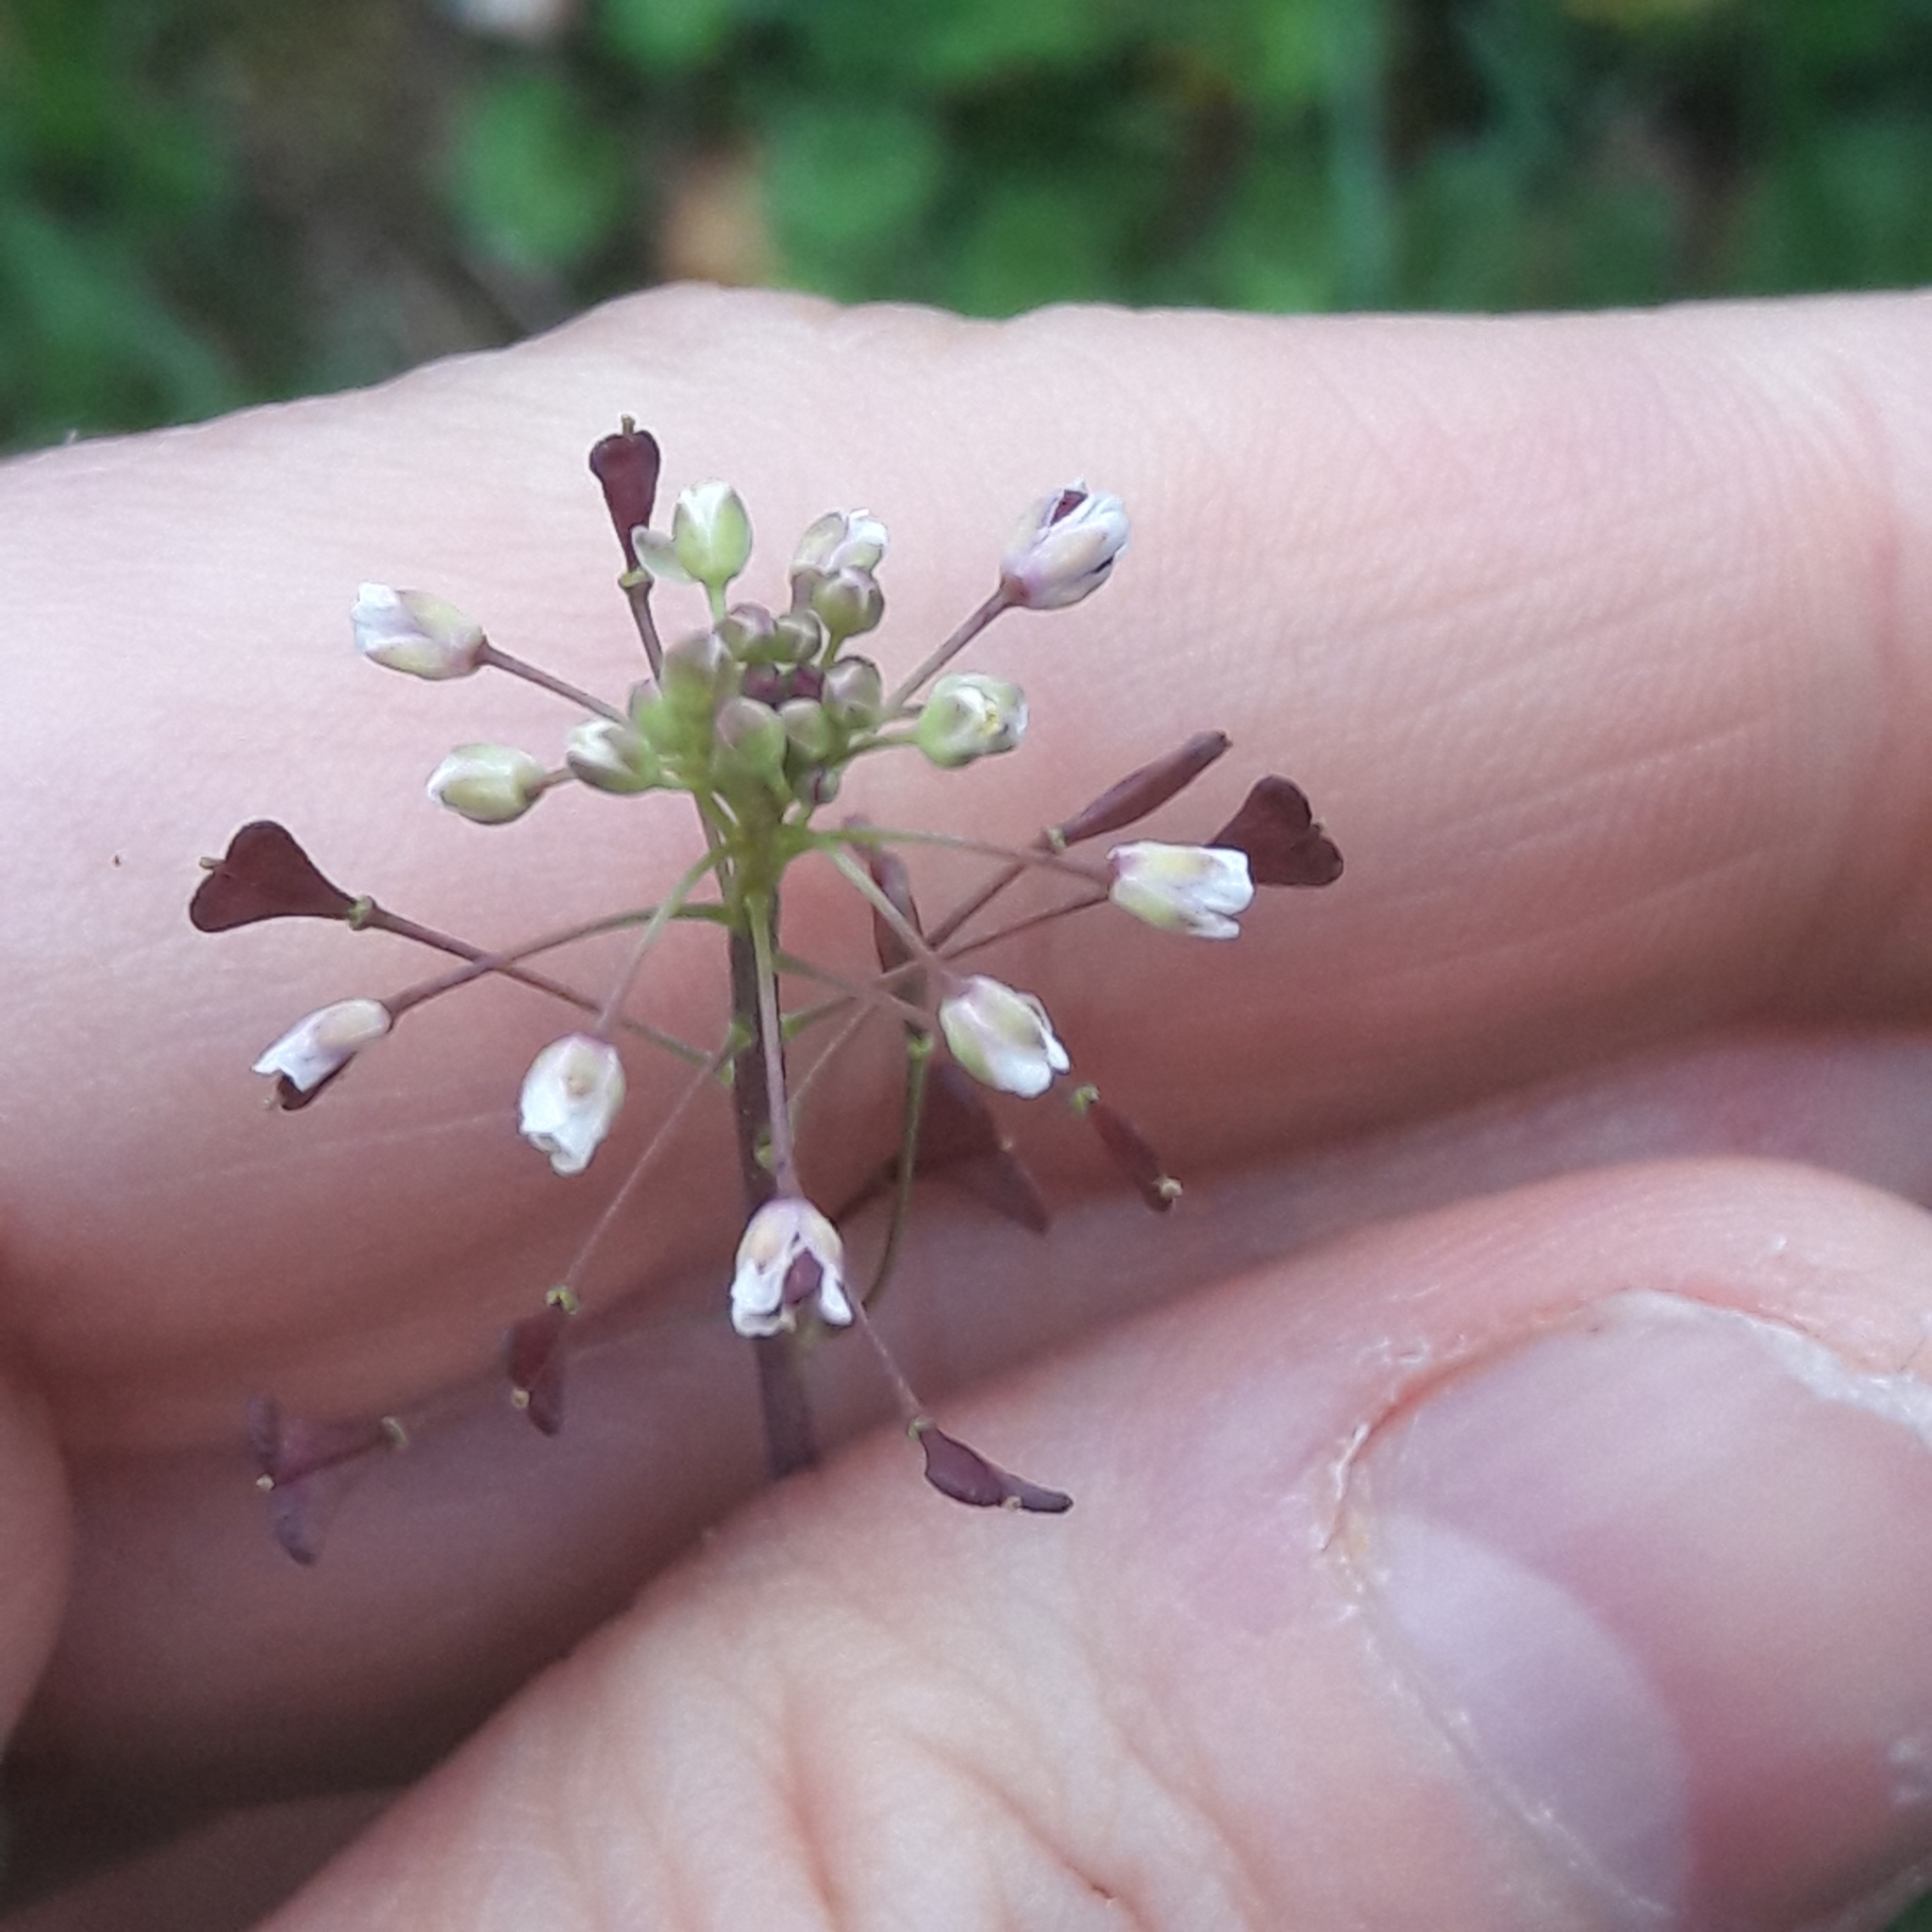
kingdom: Plantae
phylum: Tracheophyta
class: Magnoliopsida
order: Brassicales
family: Brassicaceae
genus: Capsella
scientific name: Capsella bursa-pastoris
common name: Shepherd's purse
